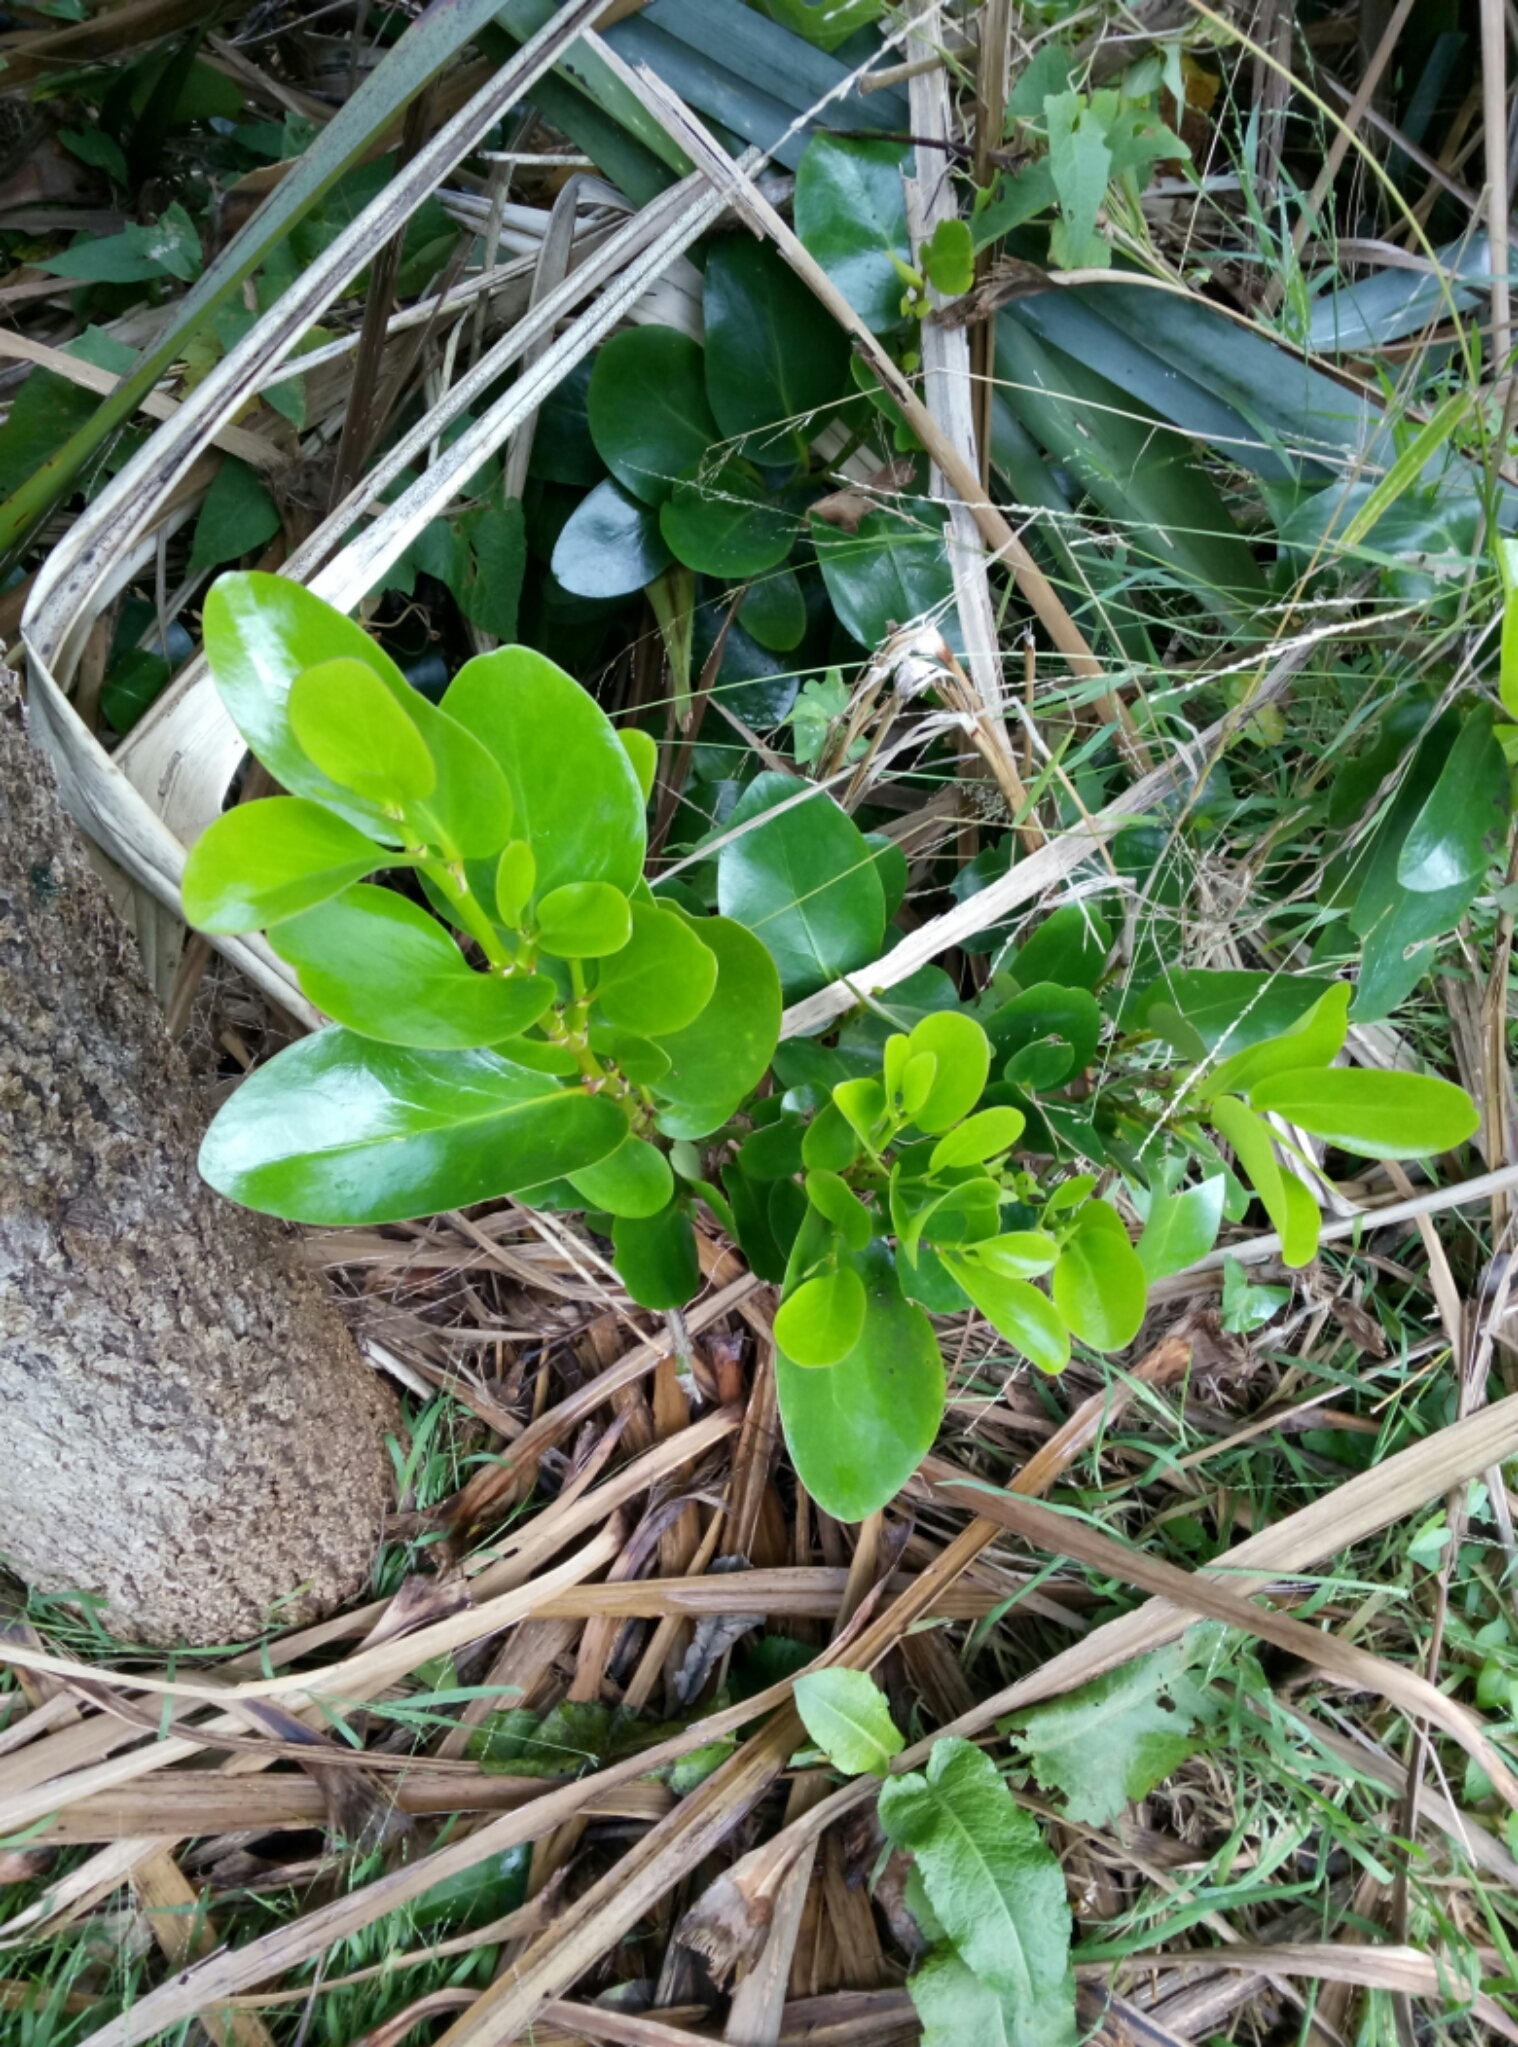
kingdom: Plantae
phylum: Tracheophyta
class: Magnoliopsida
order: Apiales
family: Griseliniaceae
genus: Griselinia
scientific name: Griselinia littoralis
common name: New zealand broadleaf
